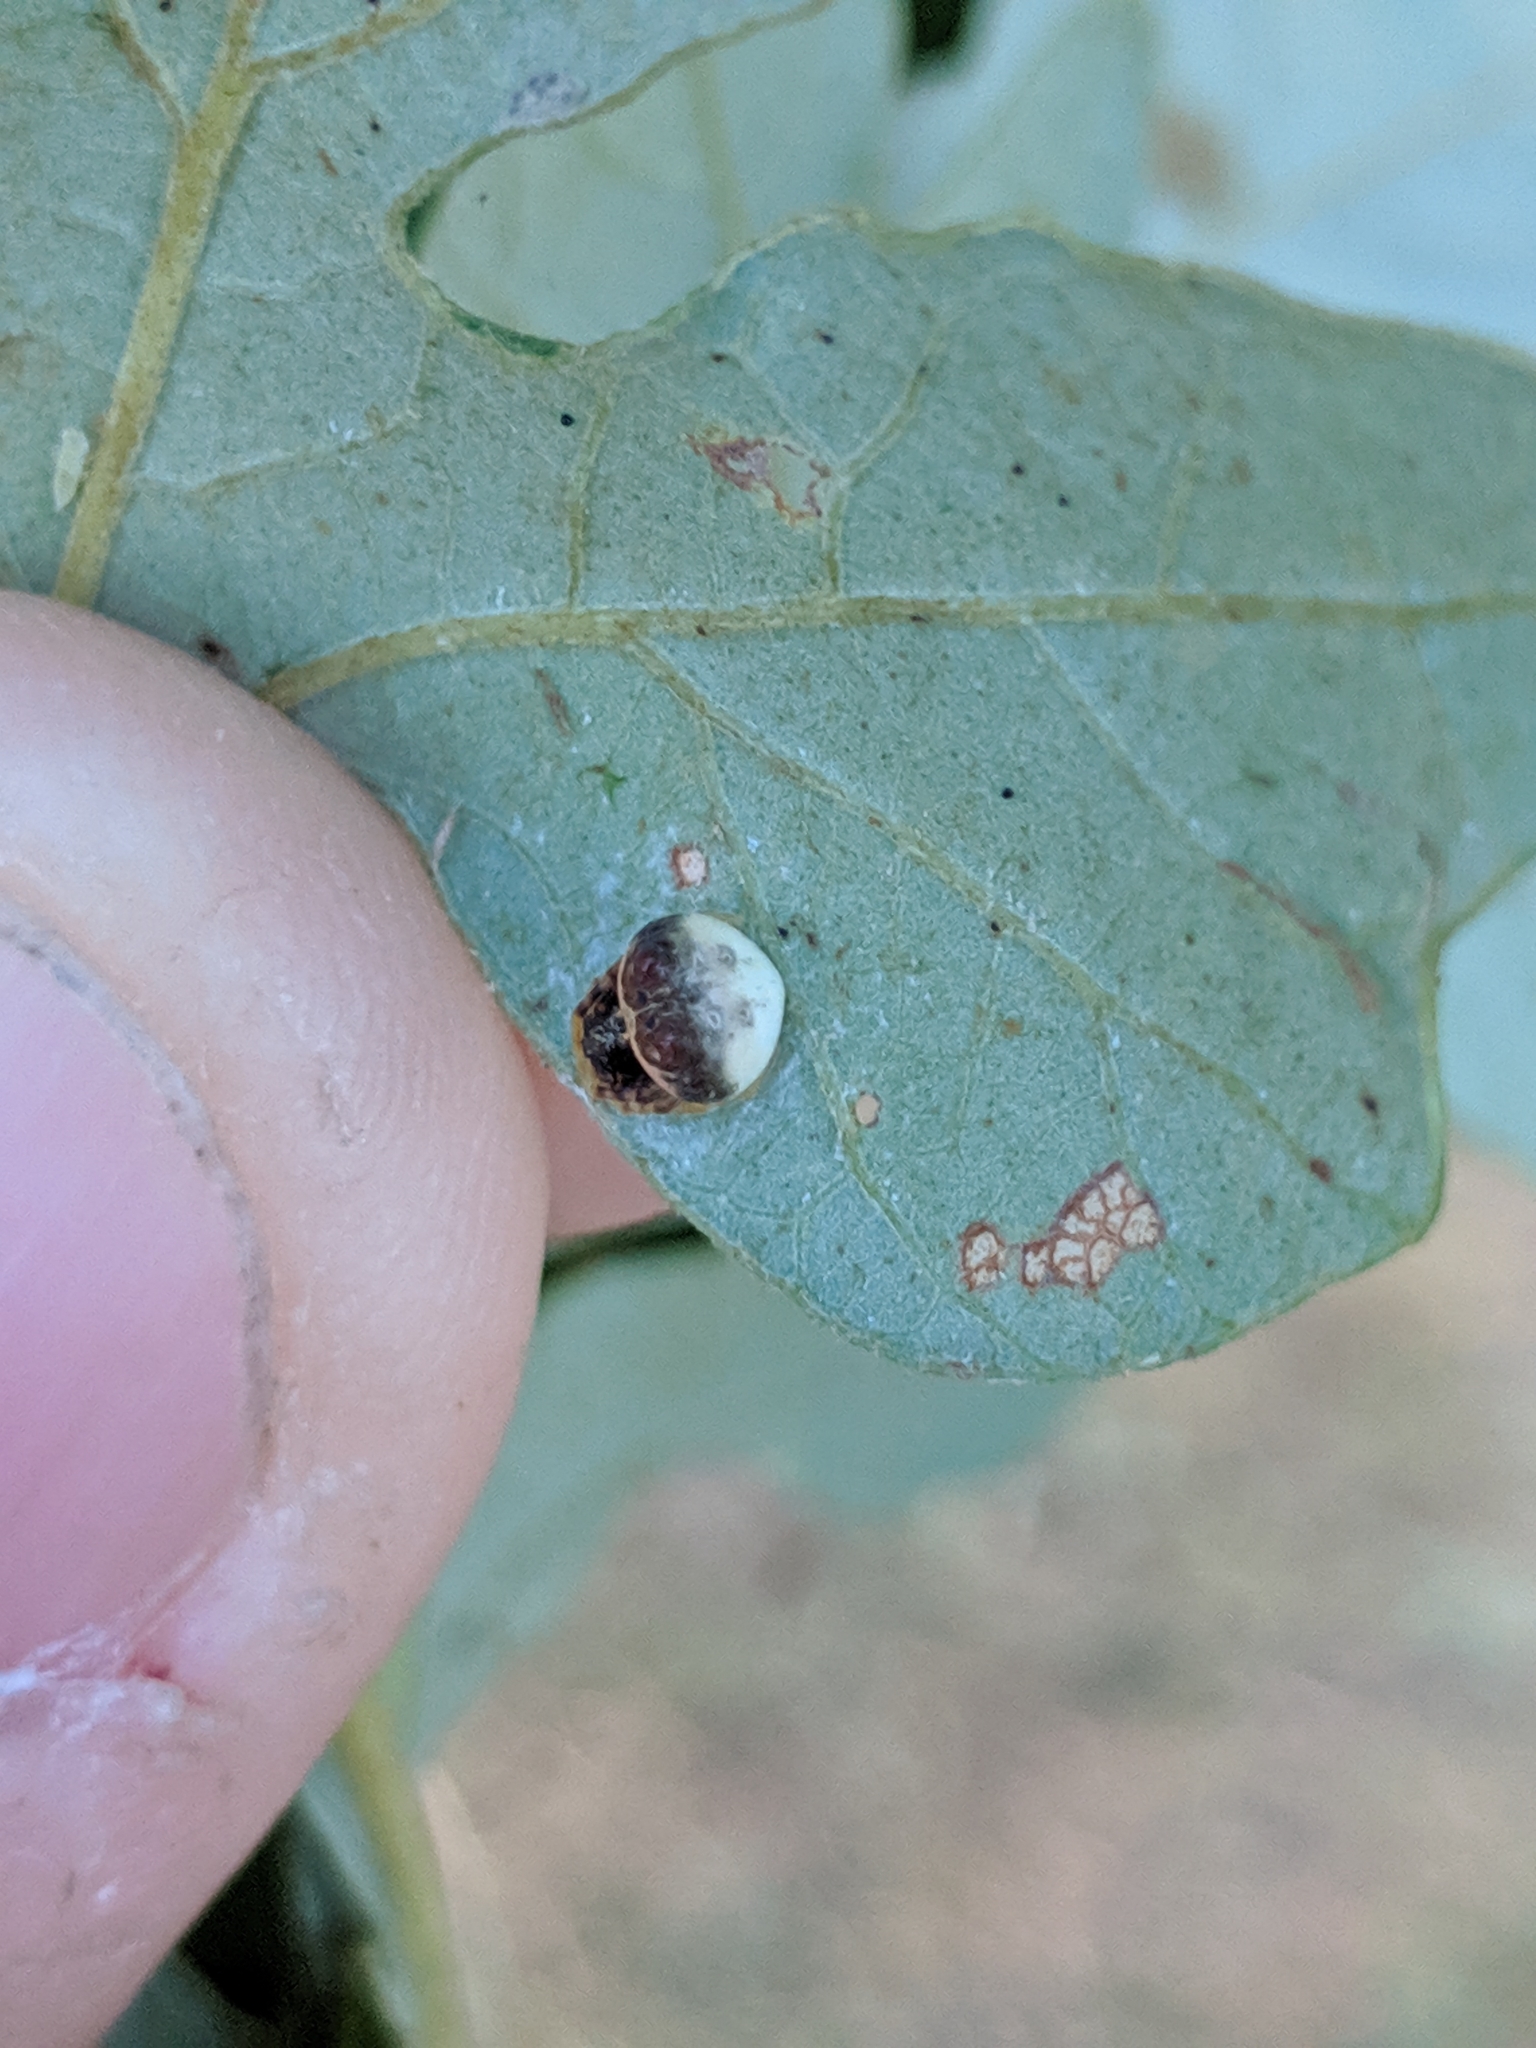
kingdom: Animalia
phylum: Arthropoda
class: Arachnida
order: Araneae
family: Araneidae
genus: Mastophora
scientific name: Mastophora hutchinsoni
